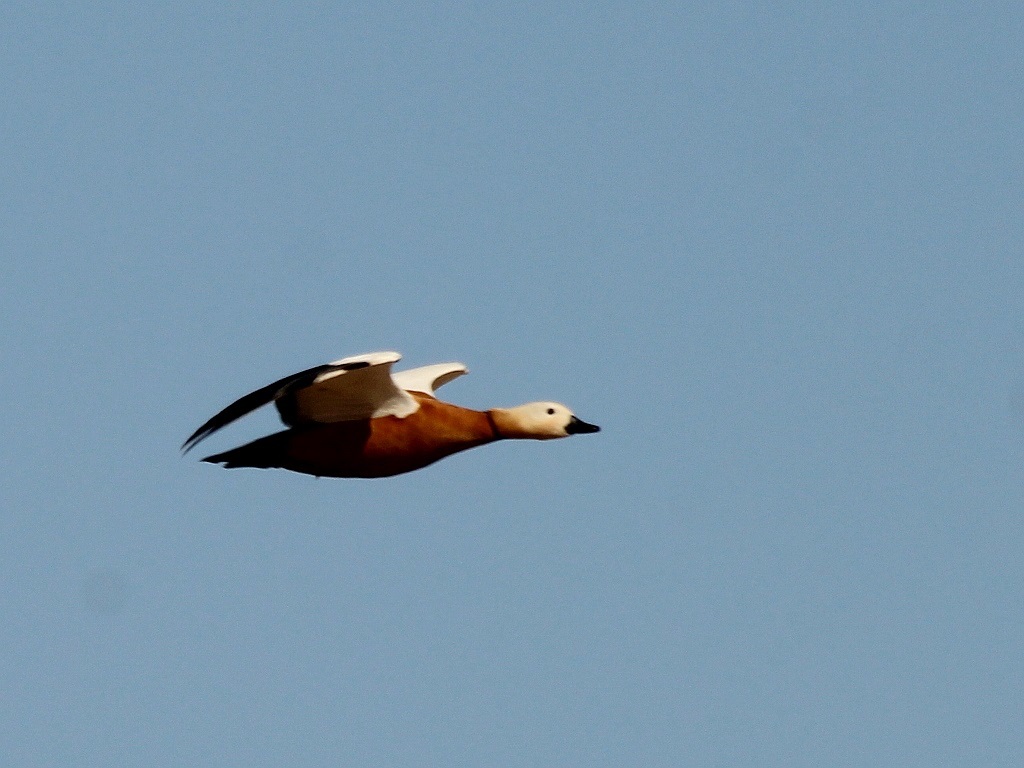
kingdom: Animalia
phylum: Chordata
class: Aves
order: Anseriformes
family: Anatidae
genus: Tadorna
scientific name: Tadorna ferruginea
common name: Ruddy shelduck
